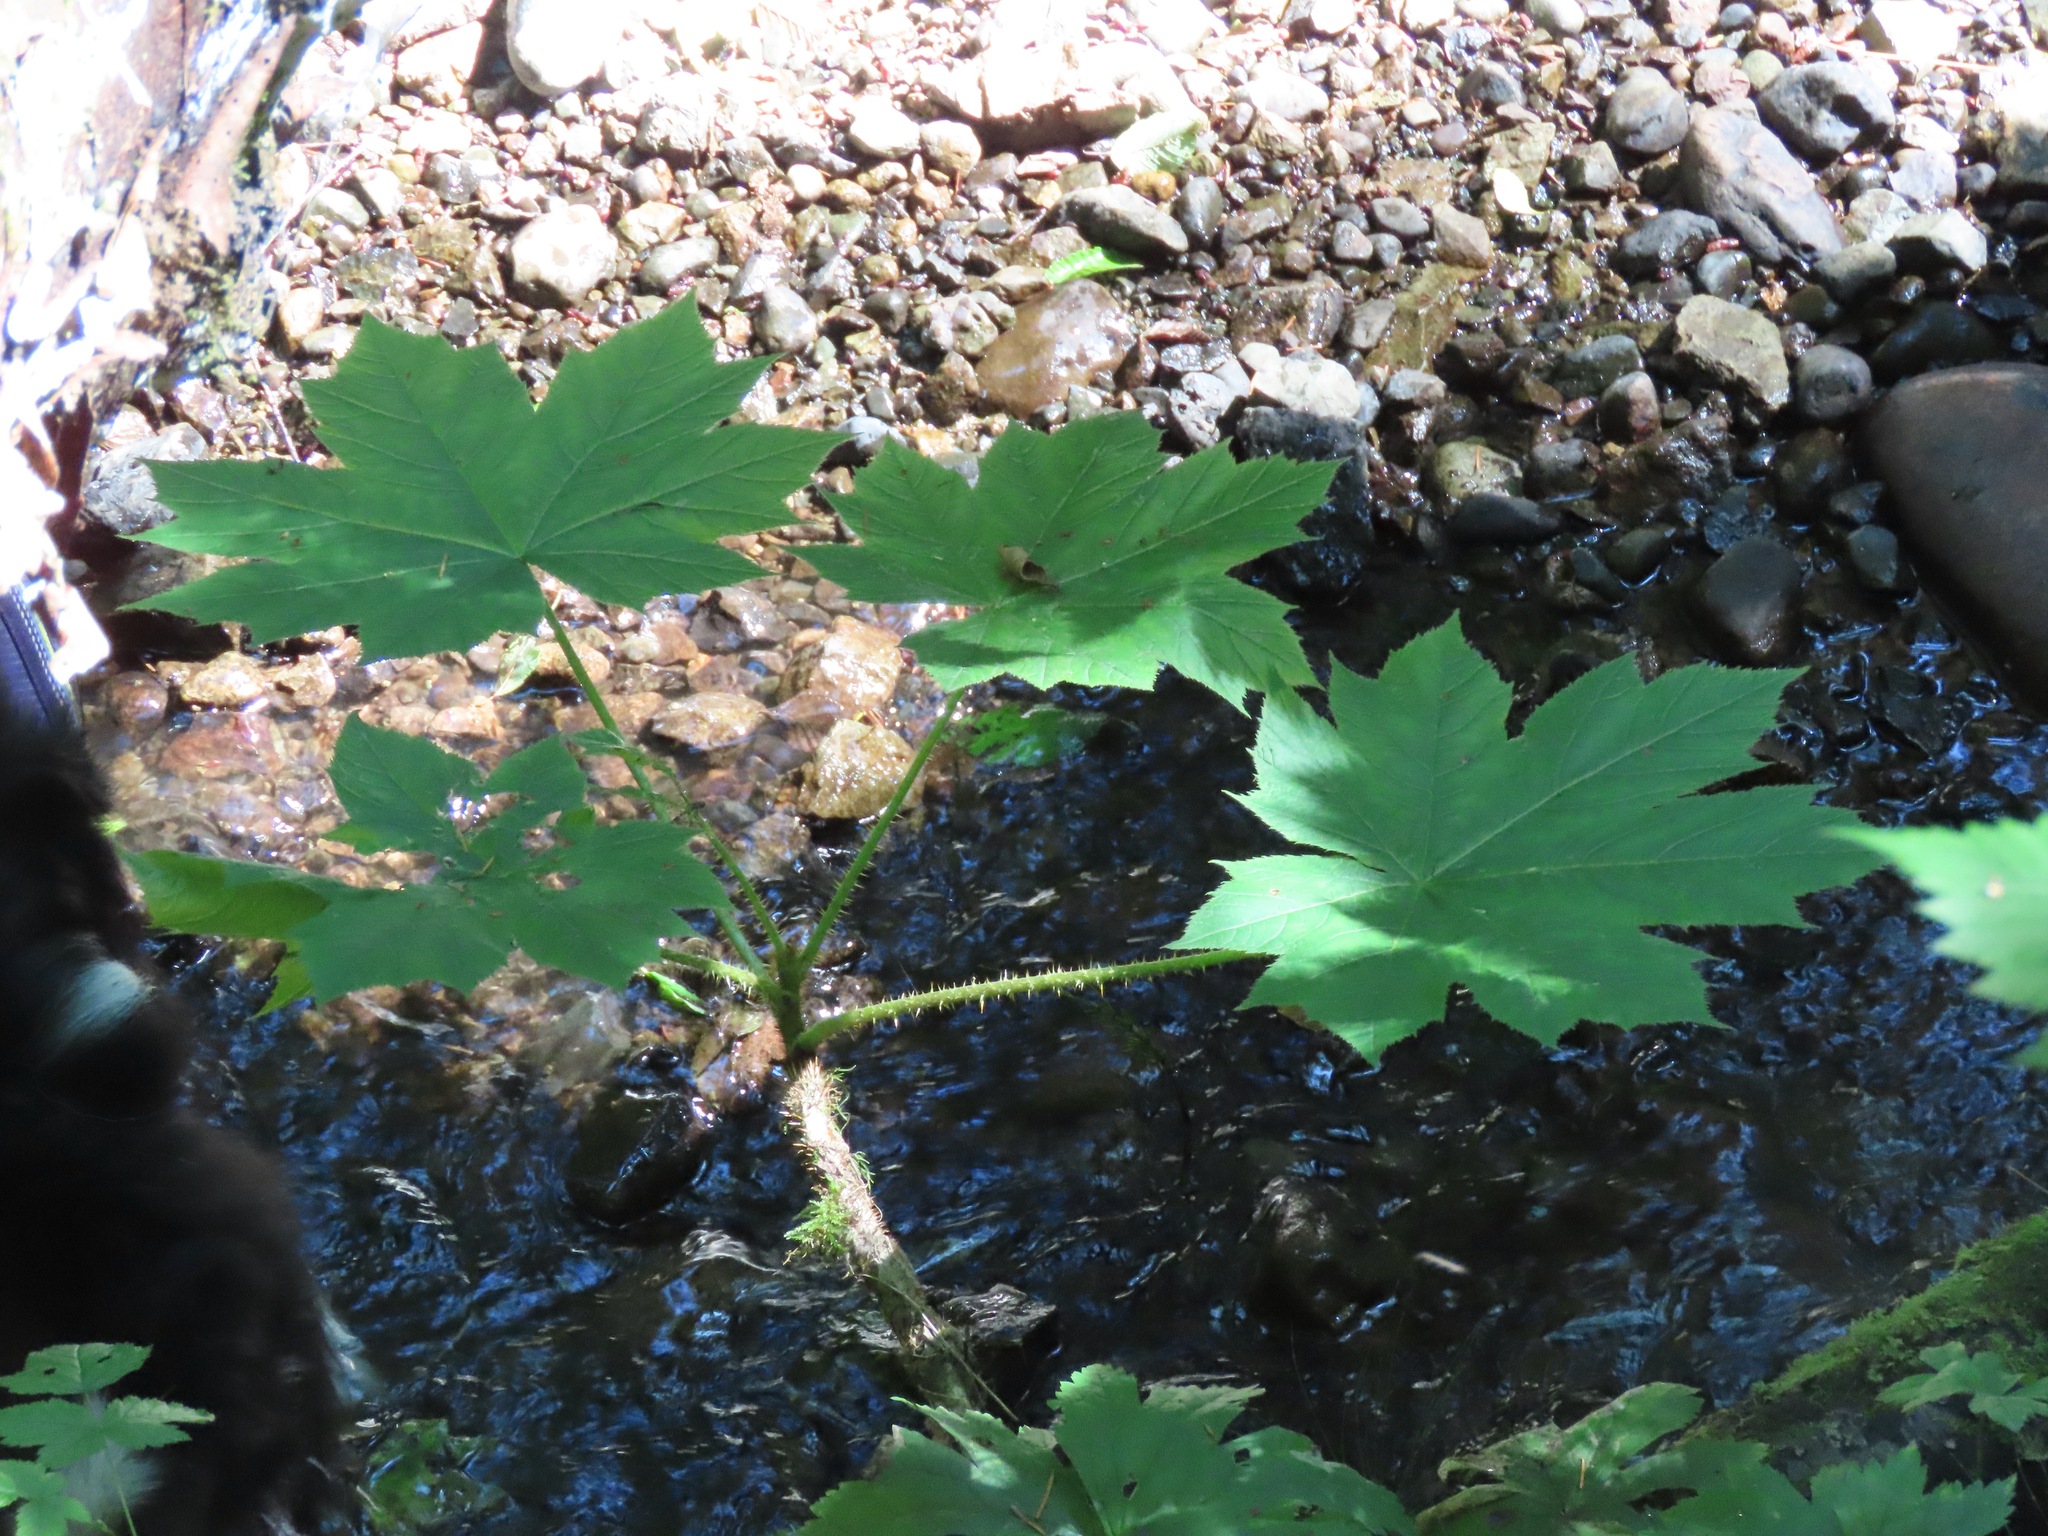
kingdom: Plantae
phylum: Tracheophyta
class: Magnoliopsida
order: Apiales
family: Araliaceae
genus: Oplopanax
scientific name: Oplopanax horridus
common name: Devil's walking-stick
